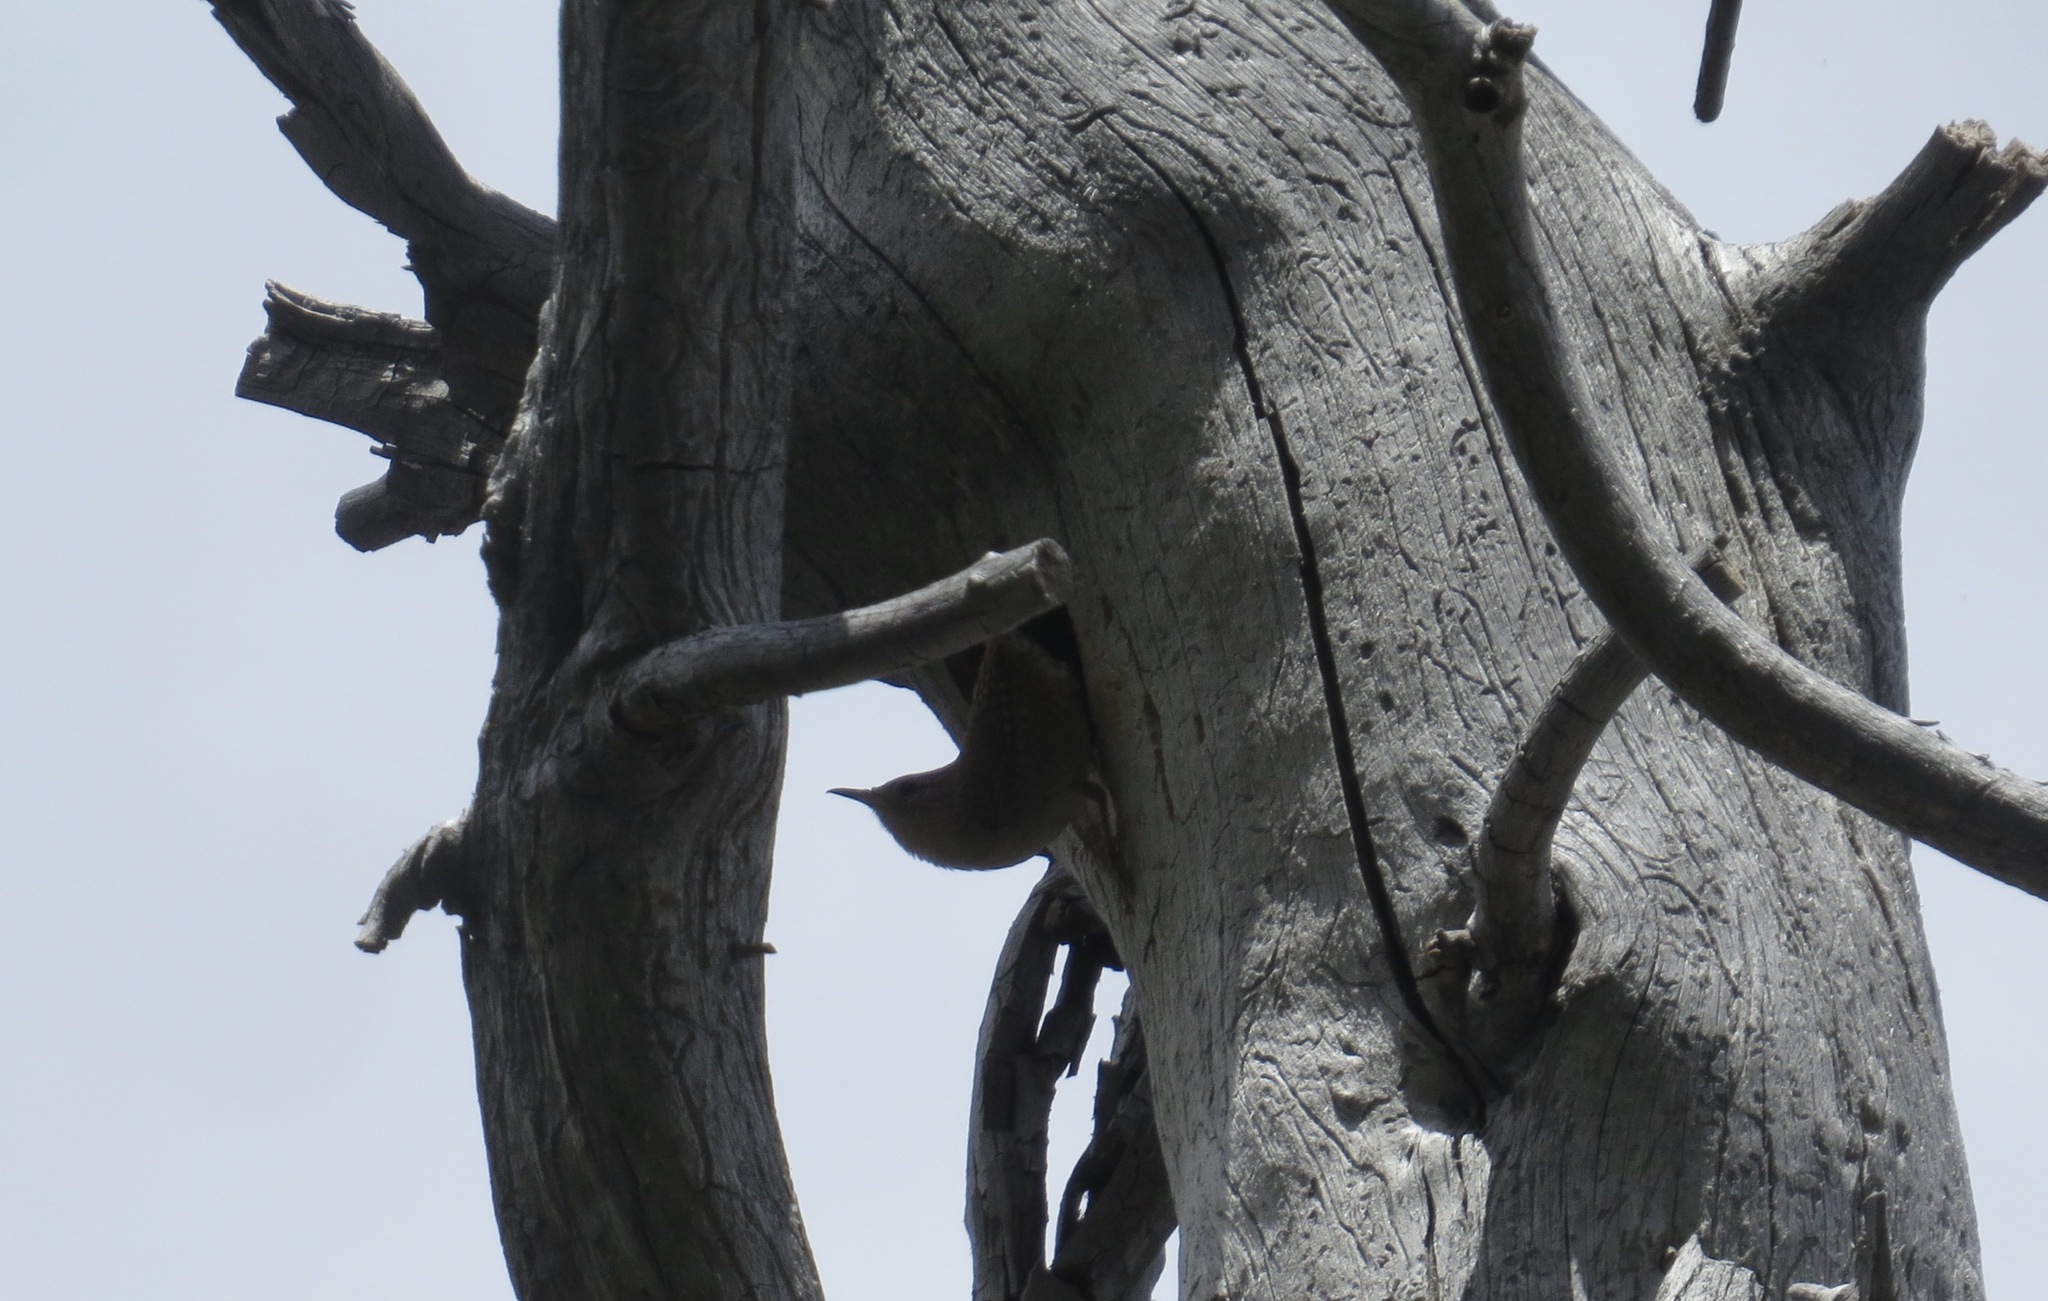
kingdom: Animalia
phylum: Chordata
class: Aves
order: Passeriformes
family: Troglodytidae
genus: Troglodytes
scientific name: Troglodytes aedon
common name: House wren
